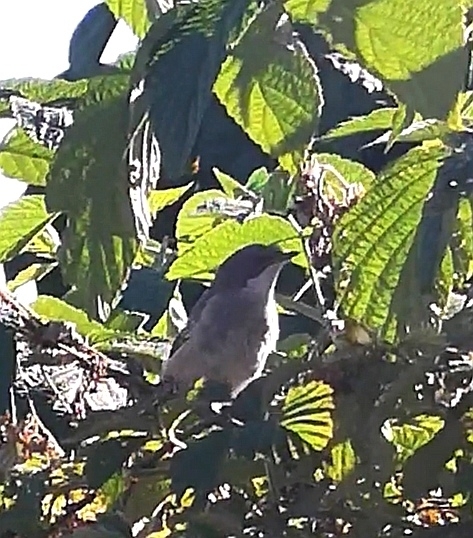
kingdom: Animalia
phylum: Chordata
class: Aves
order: Passeriformes
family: Sylviidae
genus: Sylvia
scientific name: Sylvia curruca
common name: Lesser whitethroat
